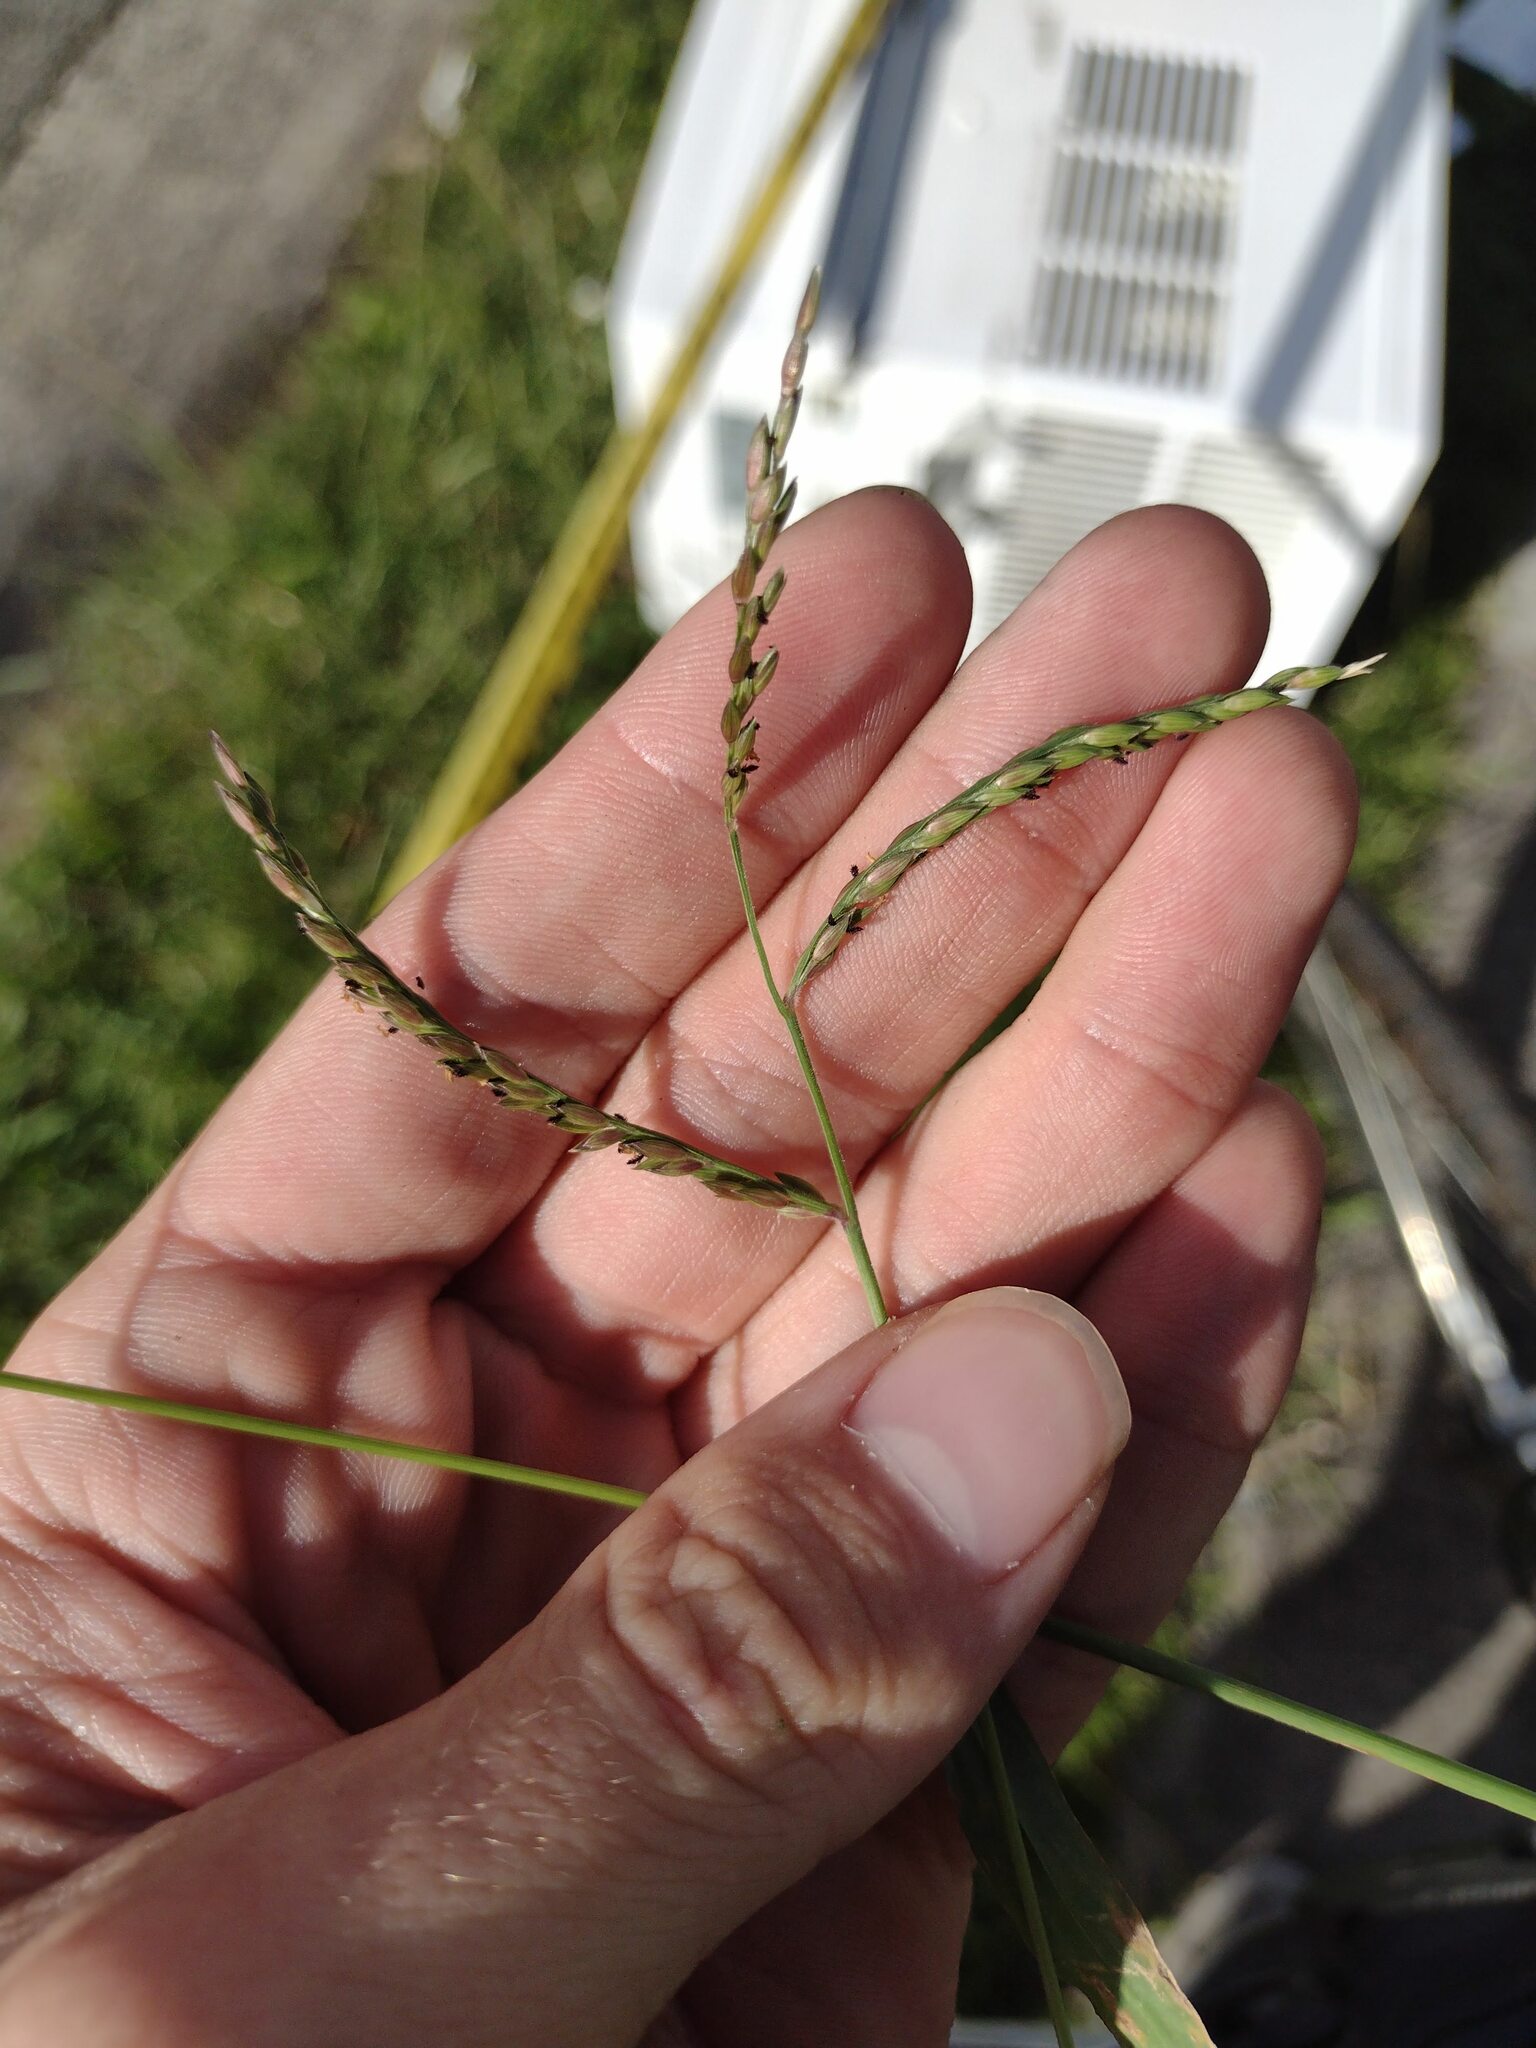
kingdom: Plantae
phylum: Tracheophyta
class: Liliopsida
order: Poales
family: Poaceae
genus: Urochloa
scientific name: Urochloa glumaris
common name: Thurston grass
